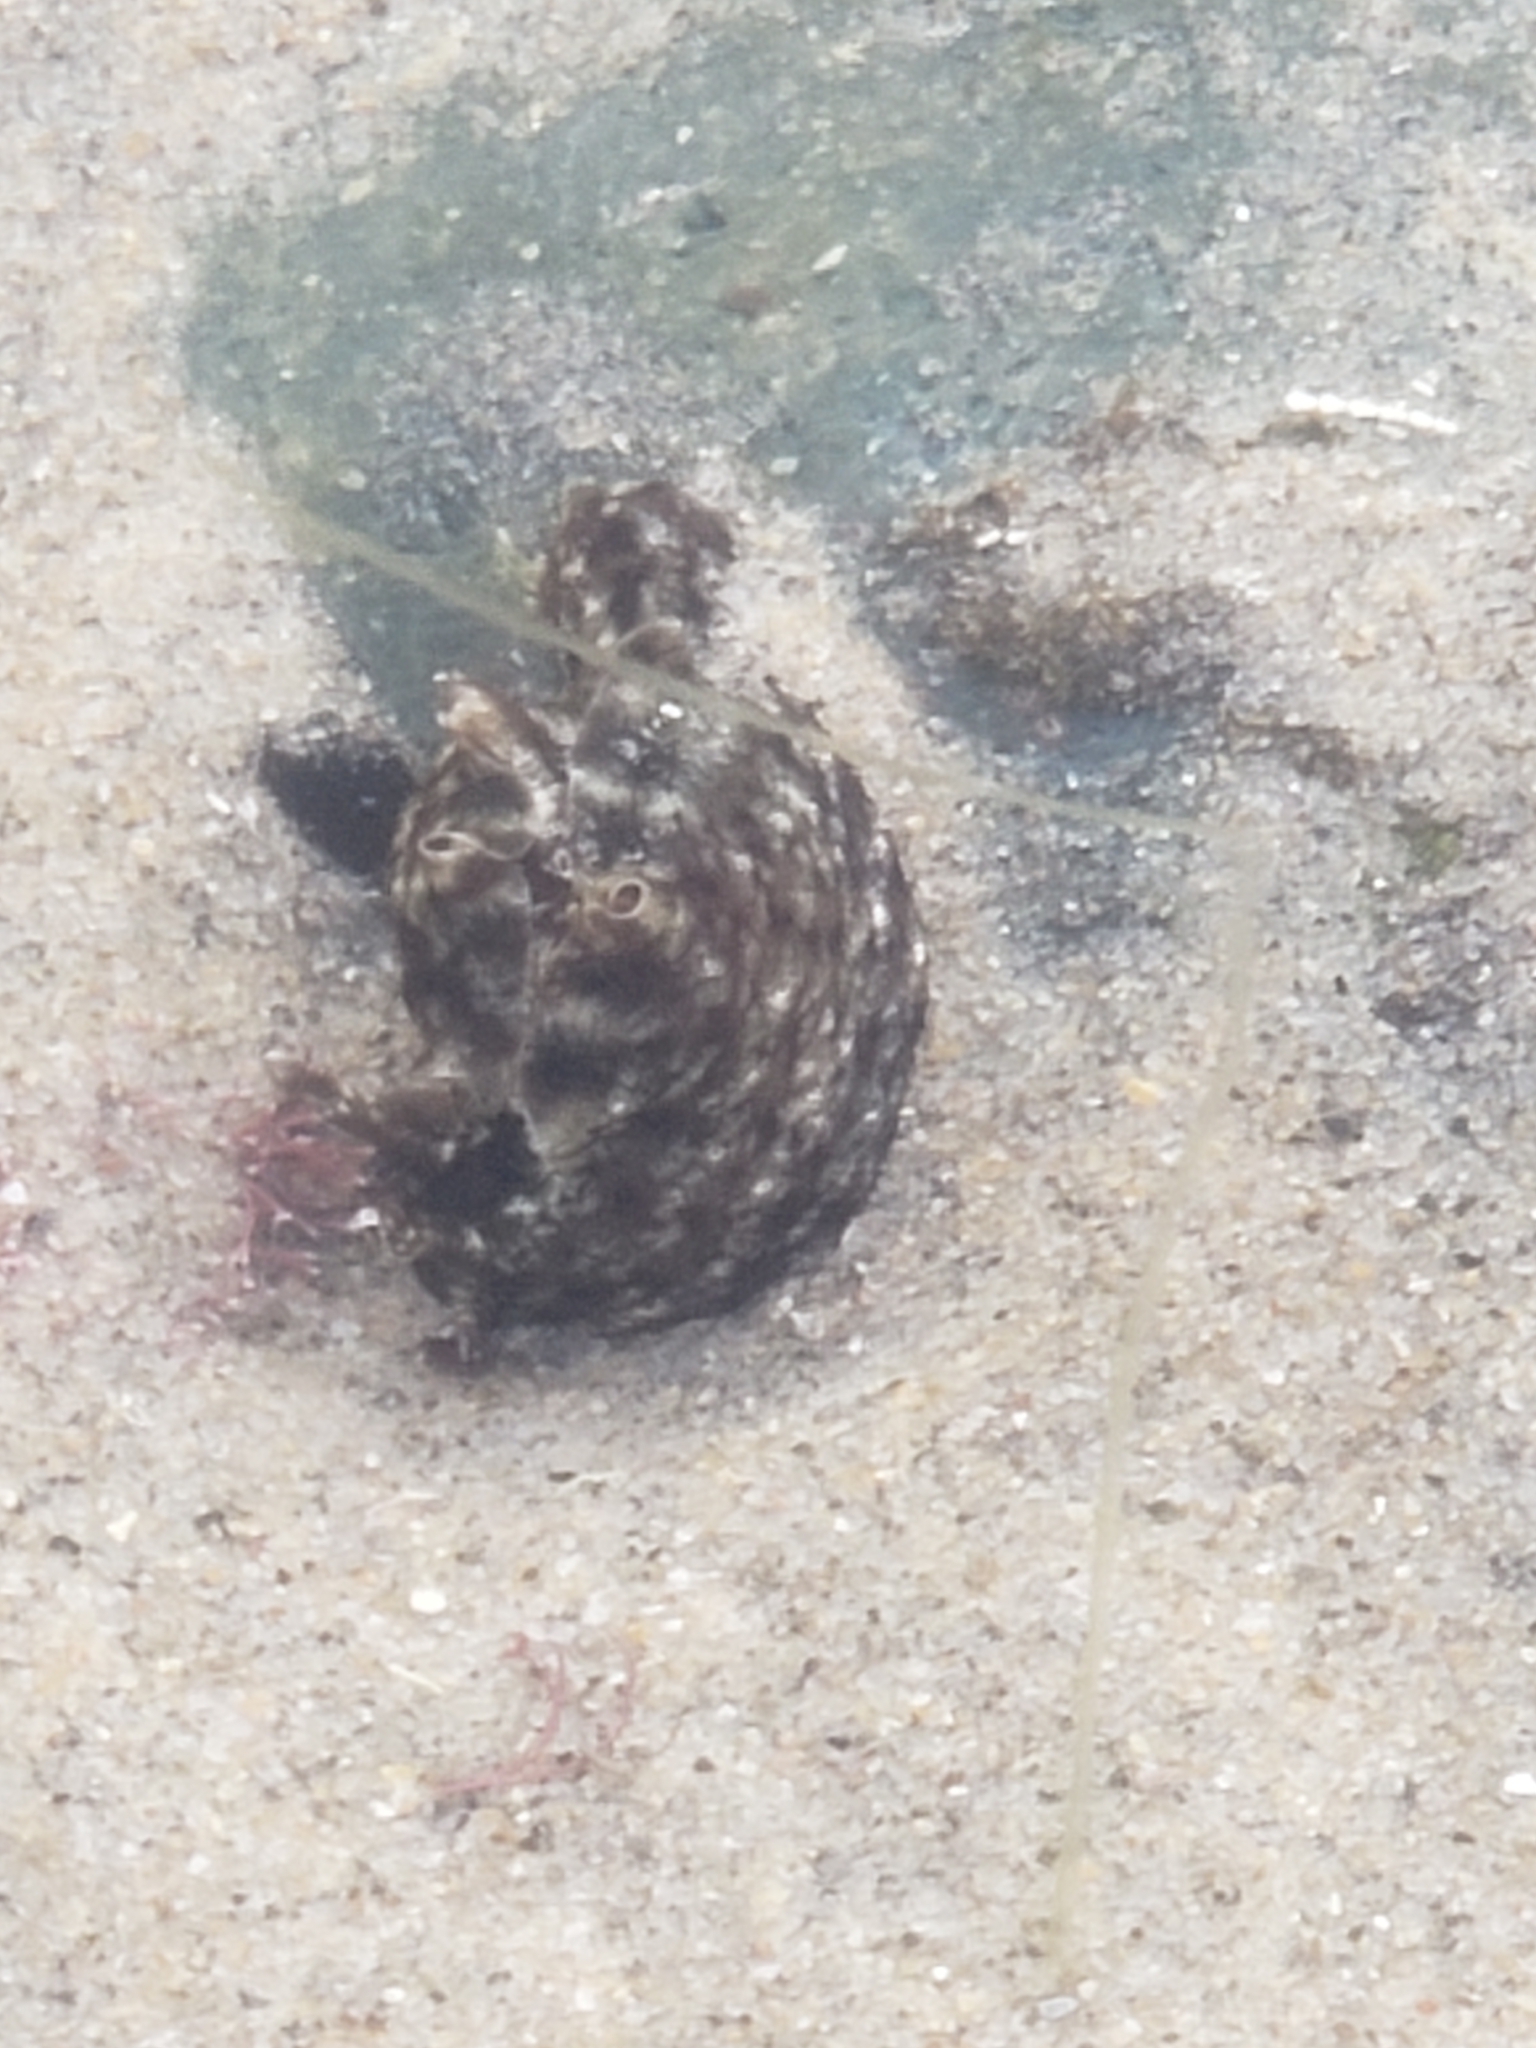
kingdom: Animalia
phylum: Mollusca
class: Gastropoda
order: Aplysiida
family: Aplysiidae
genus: Aplysia
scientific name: Aplysia californica
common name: California seahare
